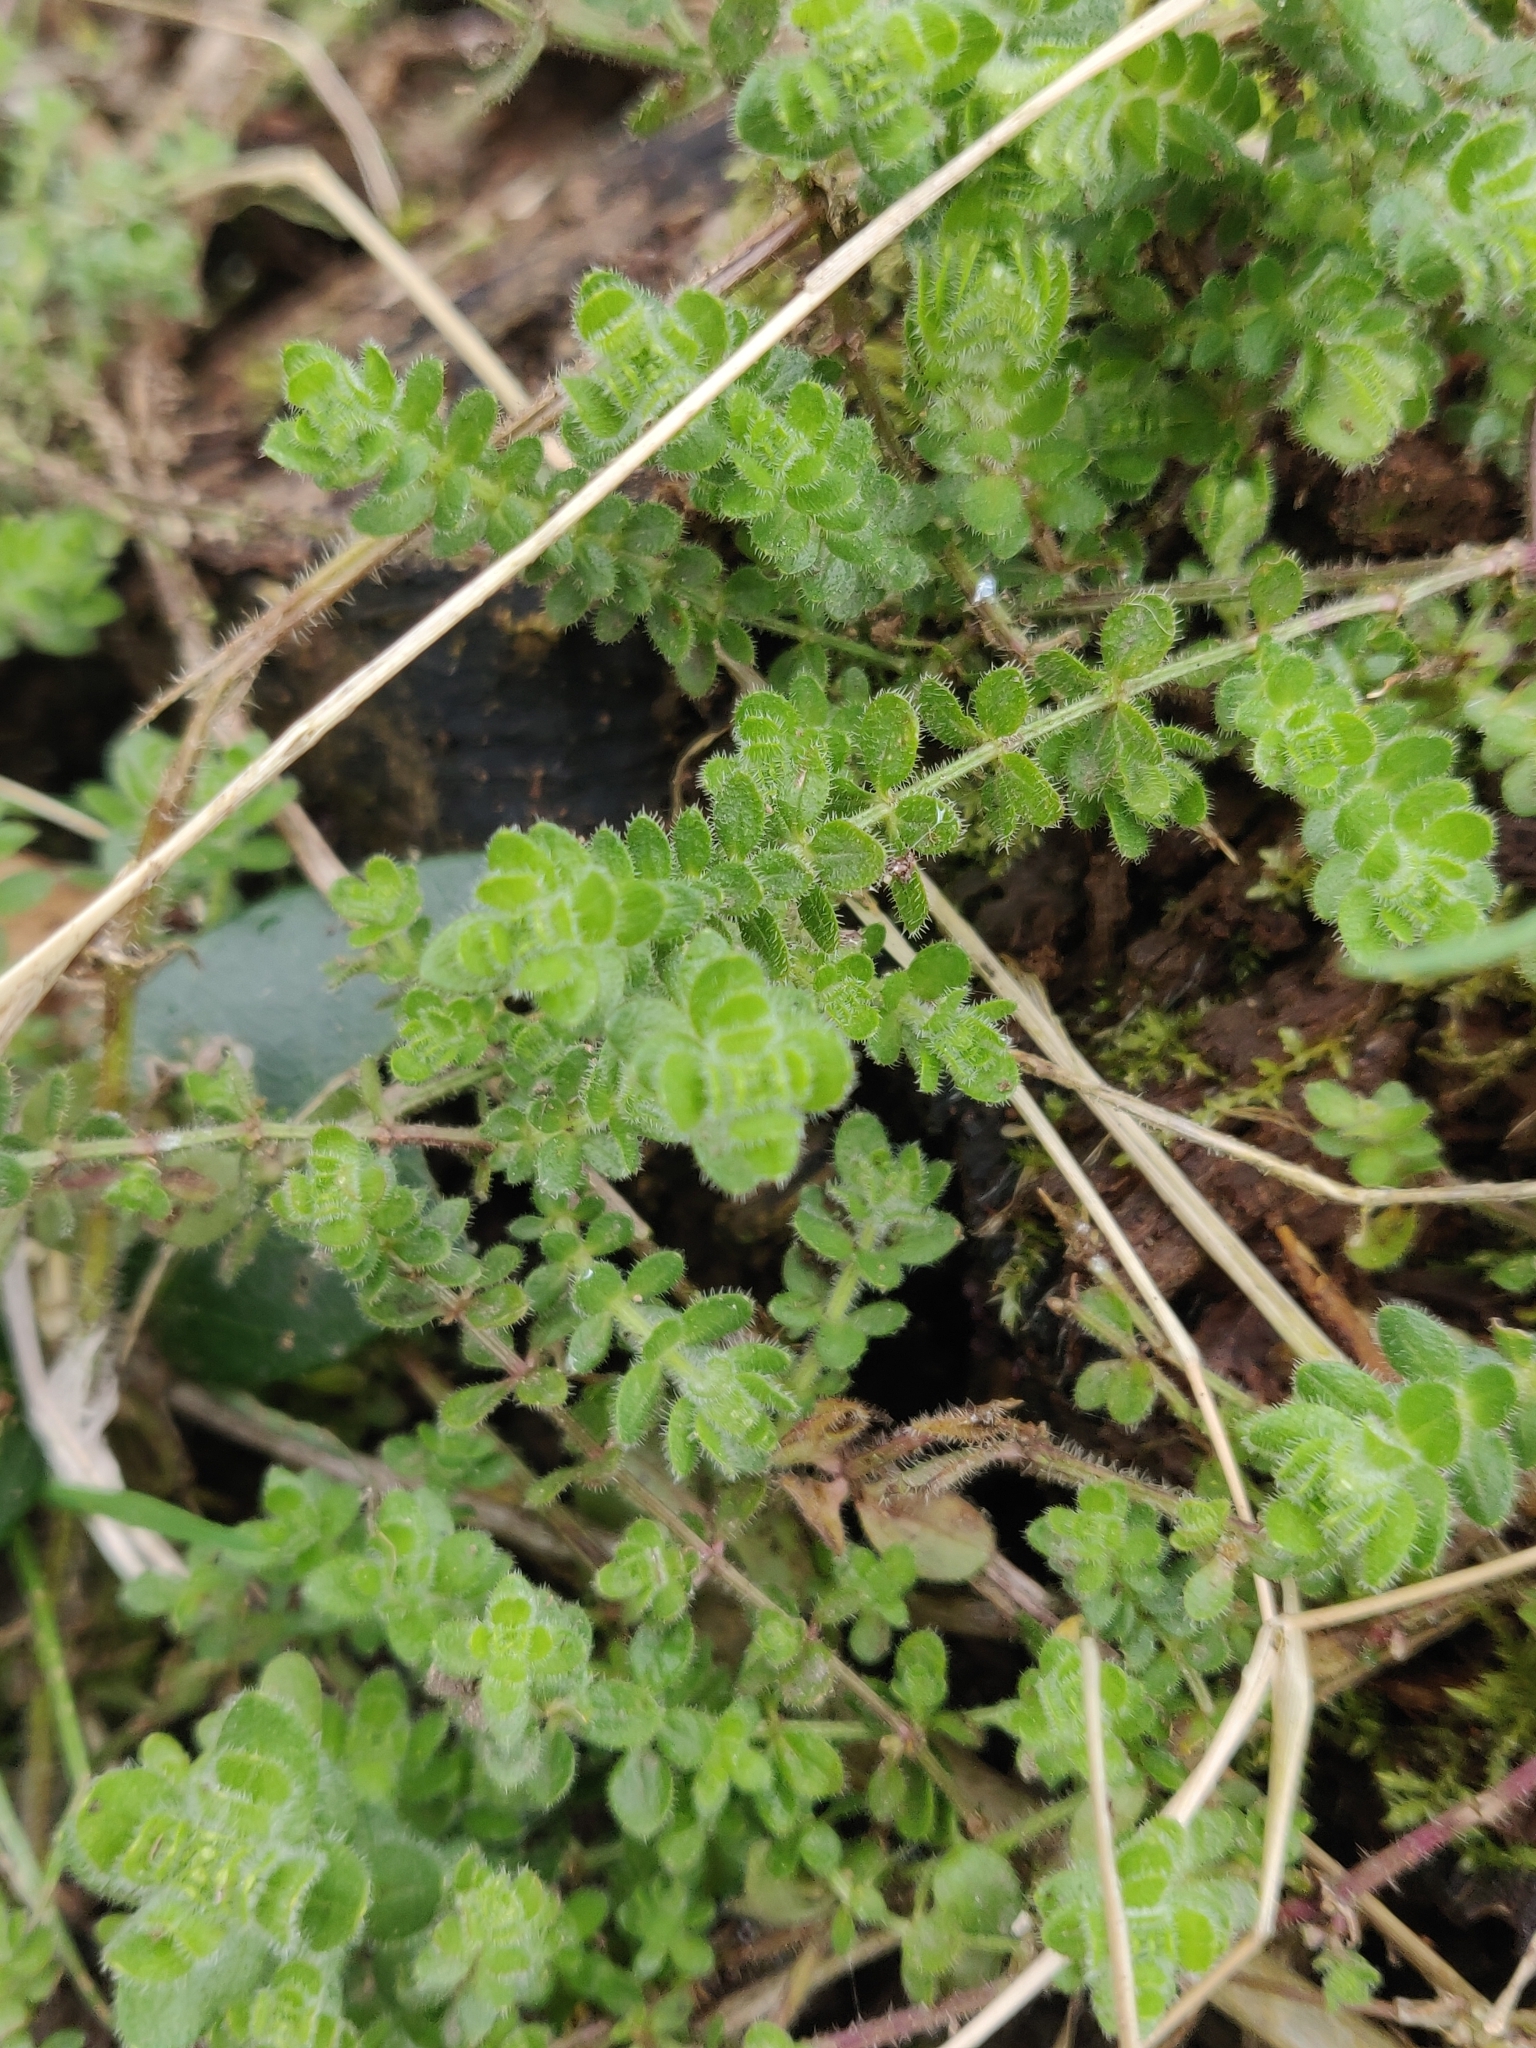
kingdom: Plantae
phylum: Tracheophyta
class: Magnoliopsida
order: Gentianales
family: Rubiaceae
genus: Cruciata
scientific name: Cruciata laevipes
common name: Crosswort
